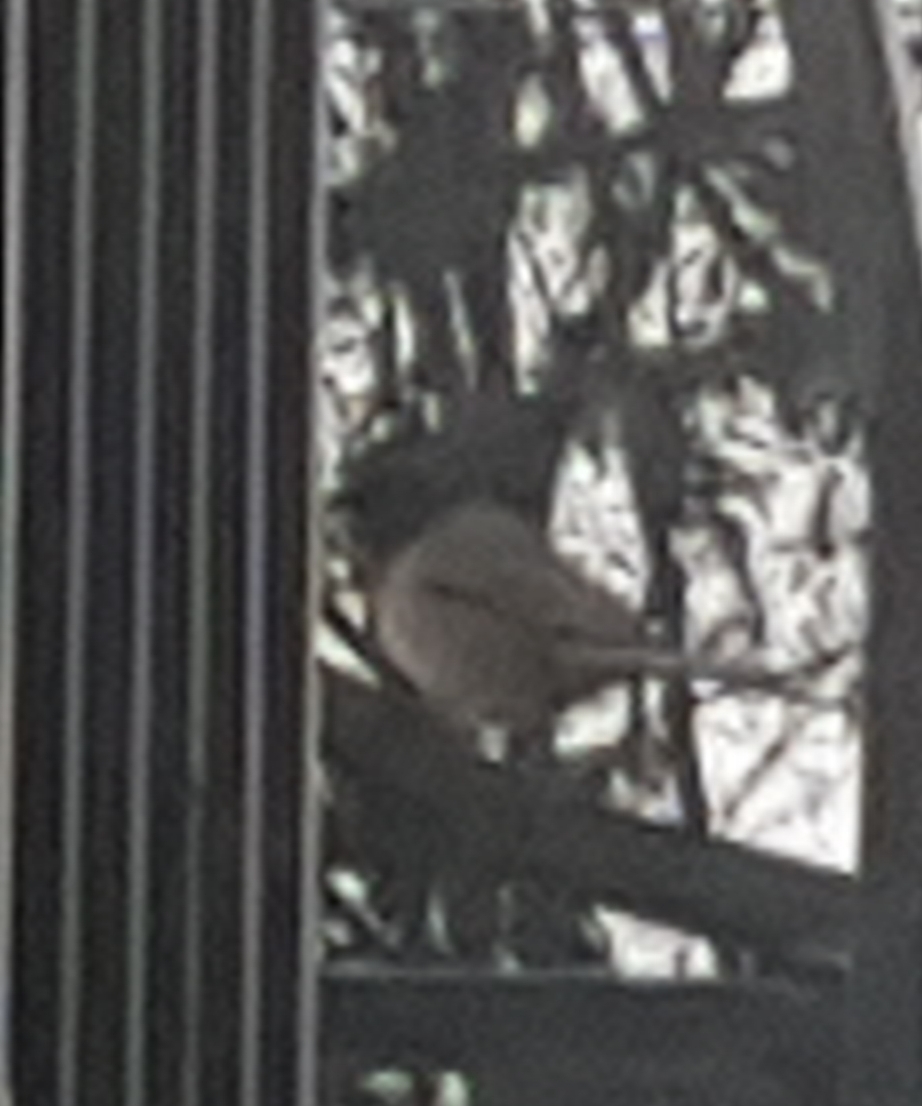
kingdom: Animalia
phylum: Chordata
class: Aves
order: Passeriformes
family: Passerellidae
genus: Junco
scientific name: Junco hyemalis
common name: Dark-eyed junco
